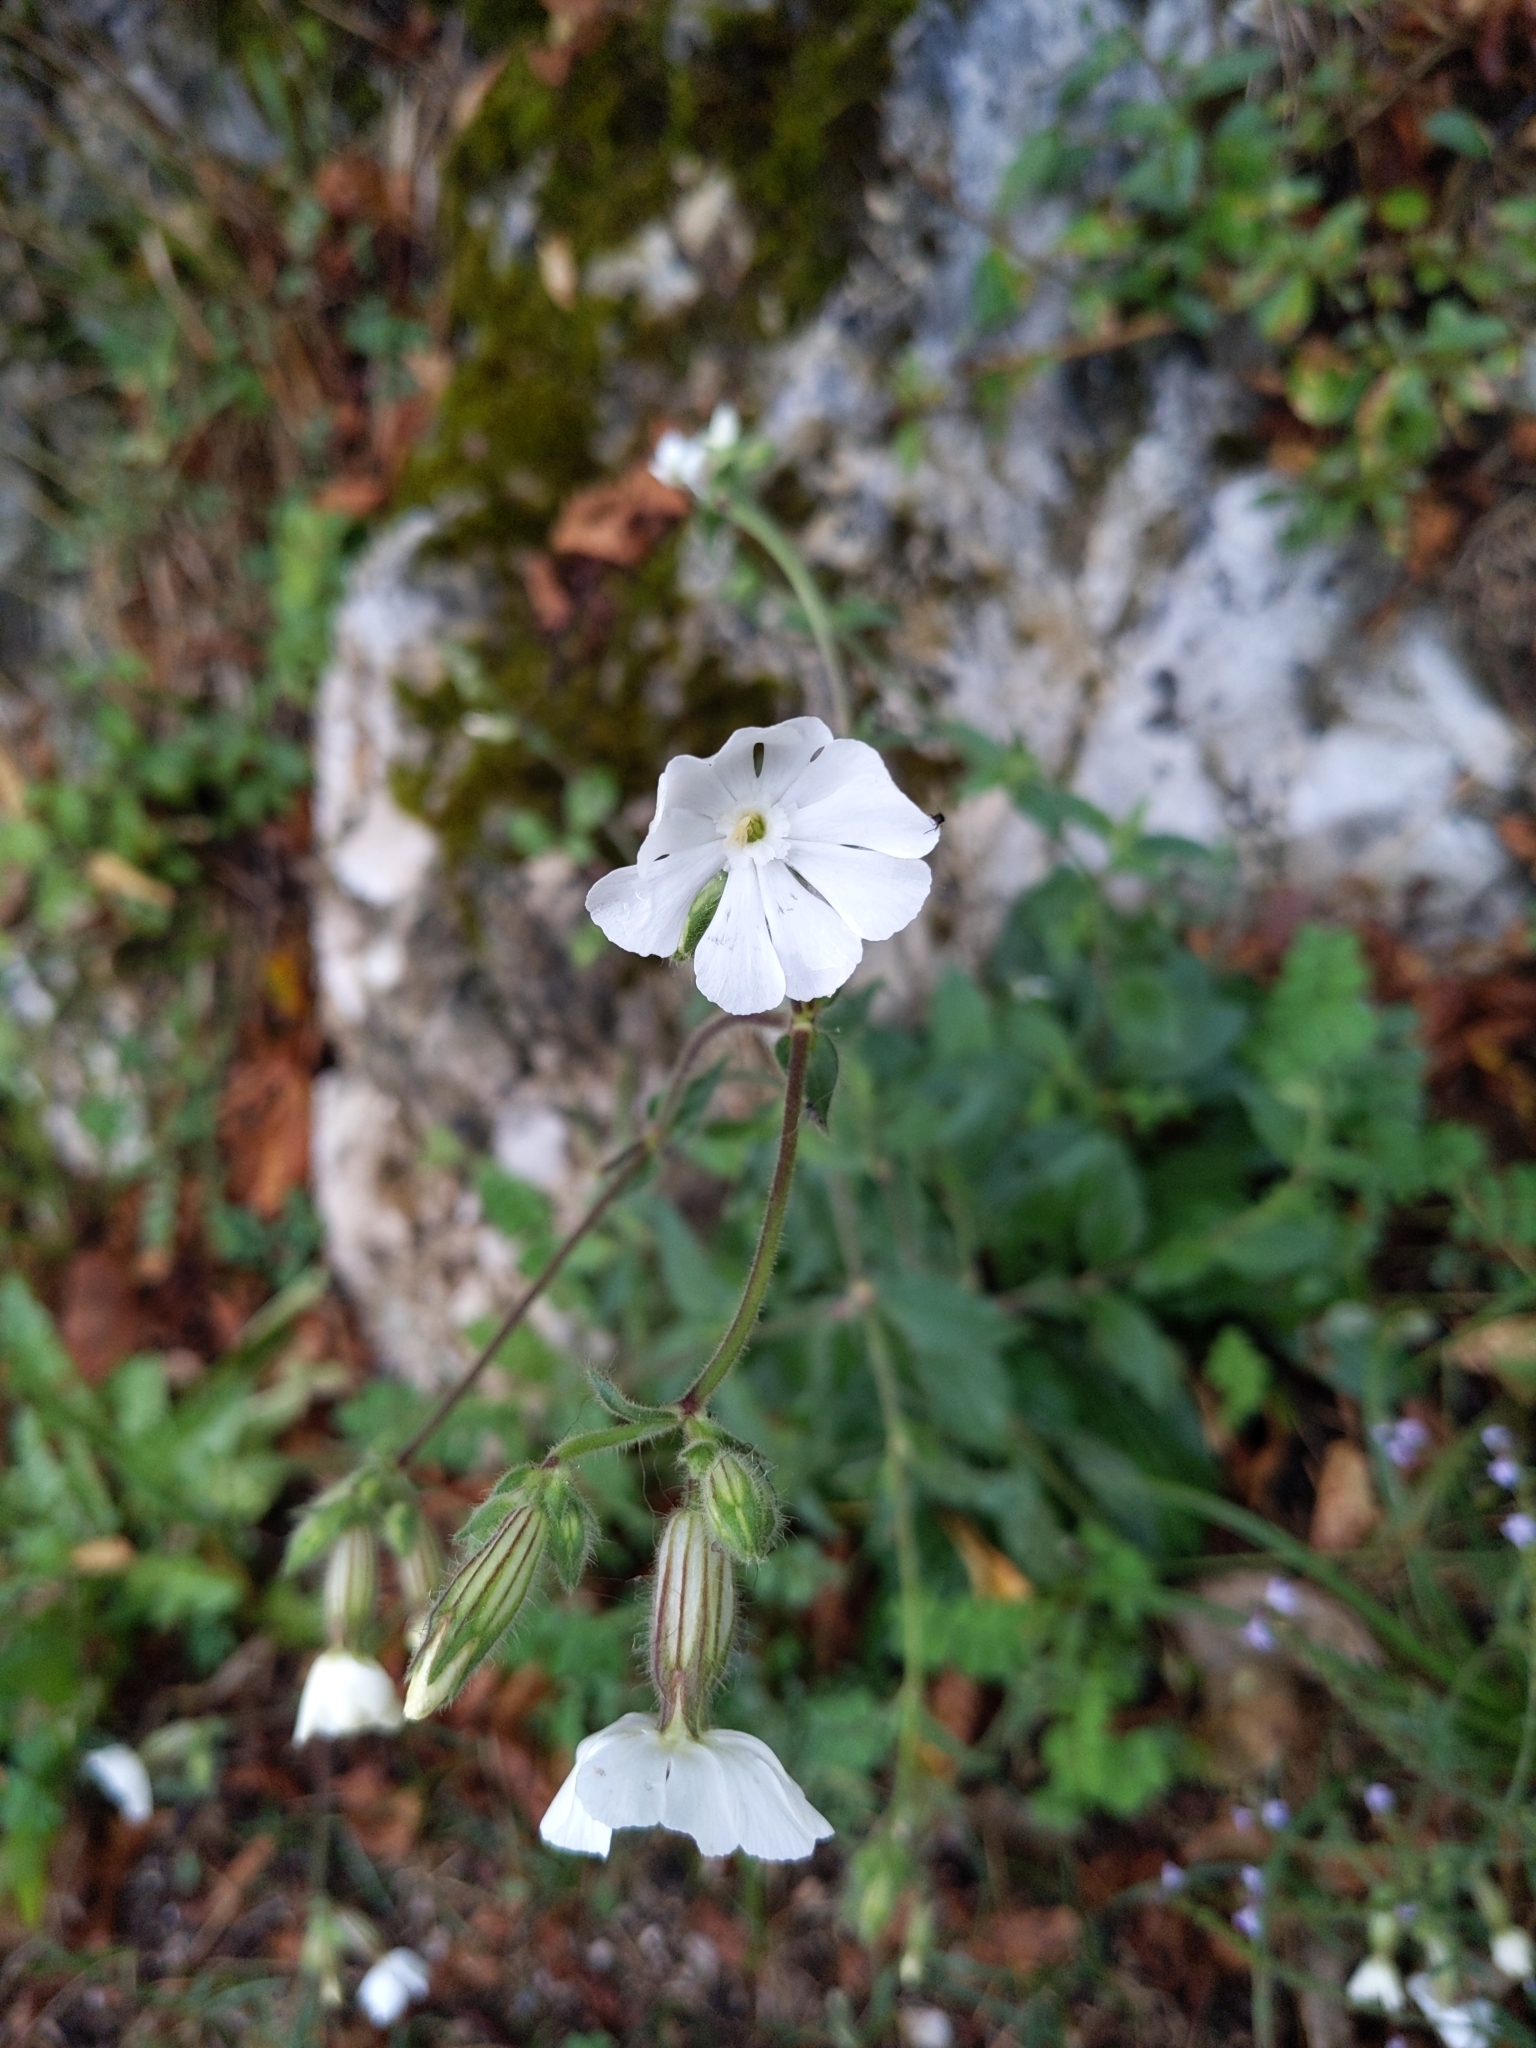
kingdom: Plantae
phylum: Tracheophyta
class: Magnoliopsida
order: Caryophyllales
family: Caryophyllaceae
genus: Silene
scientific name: Silene latifolia
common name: White campion
